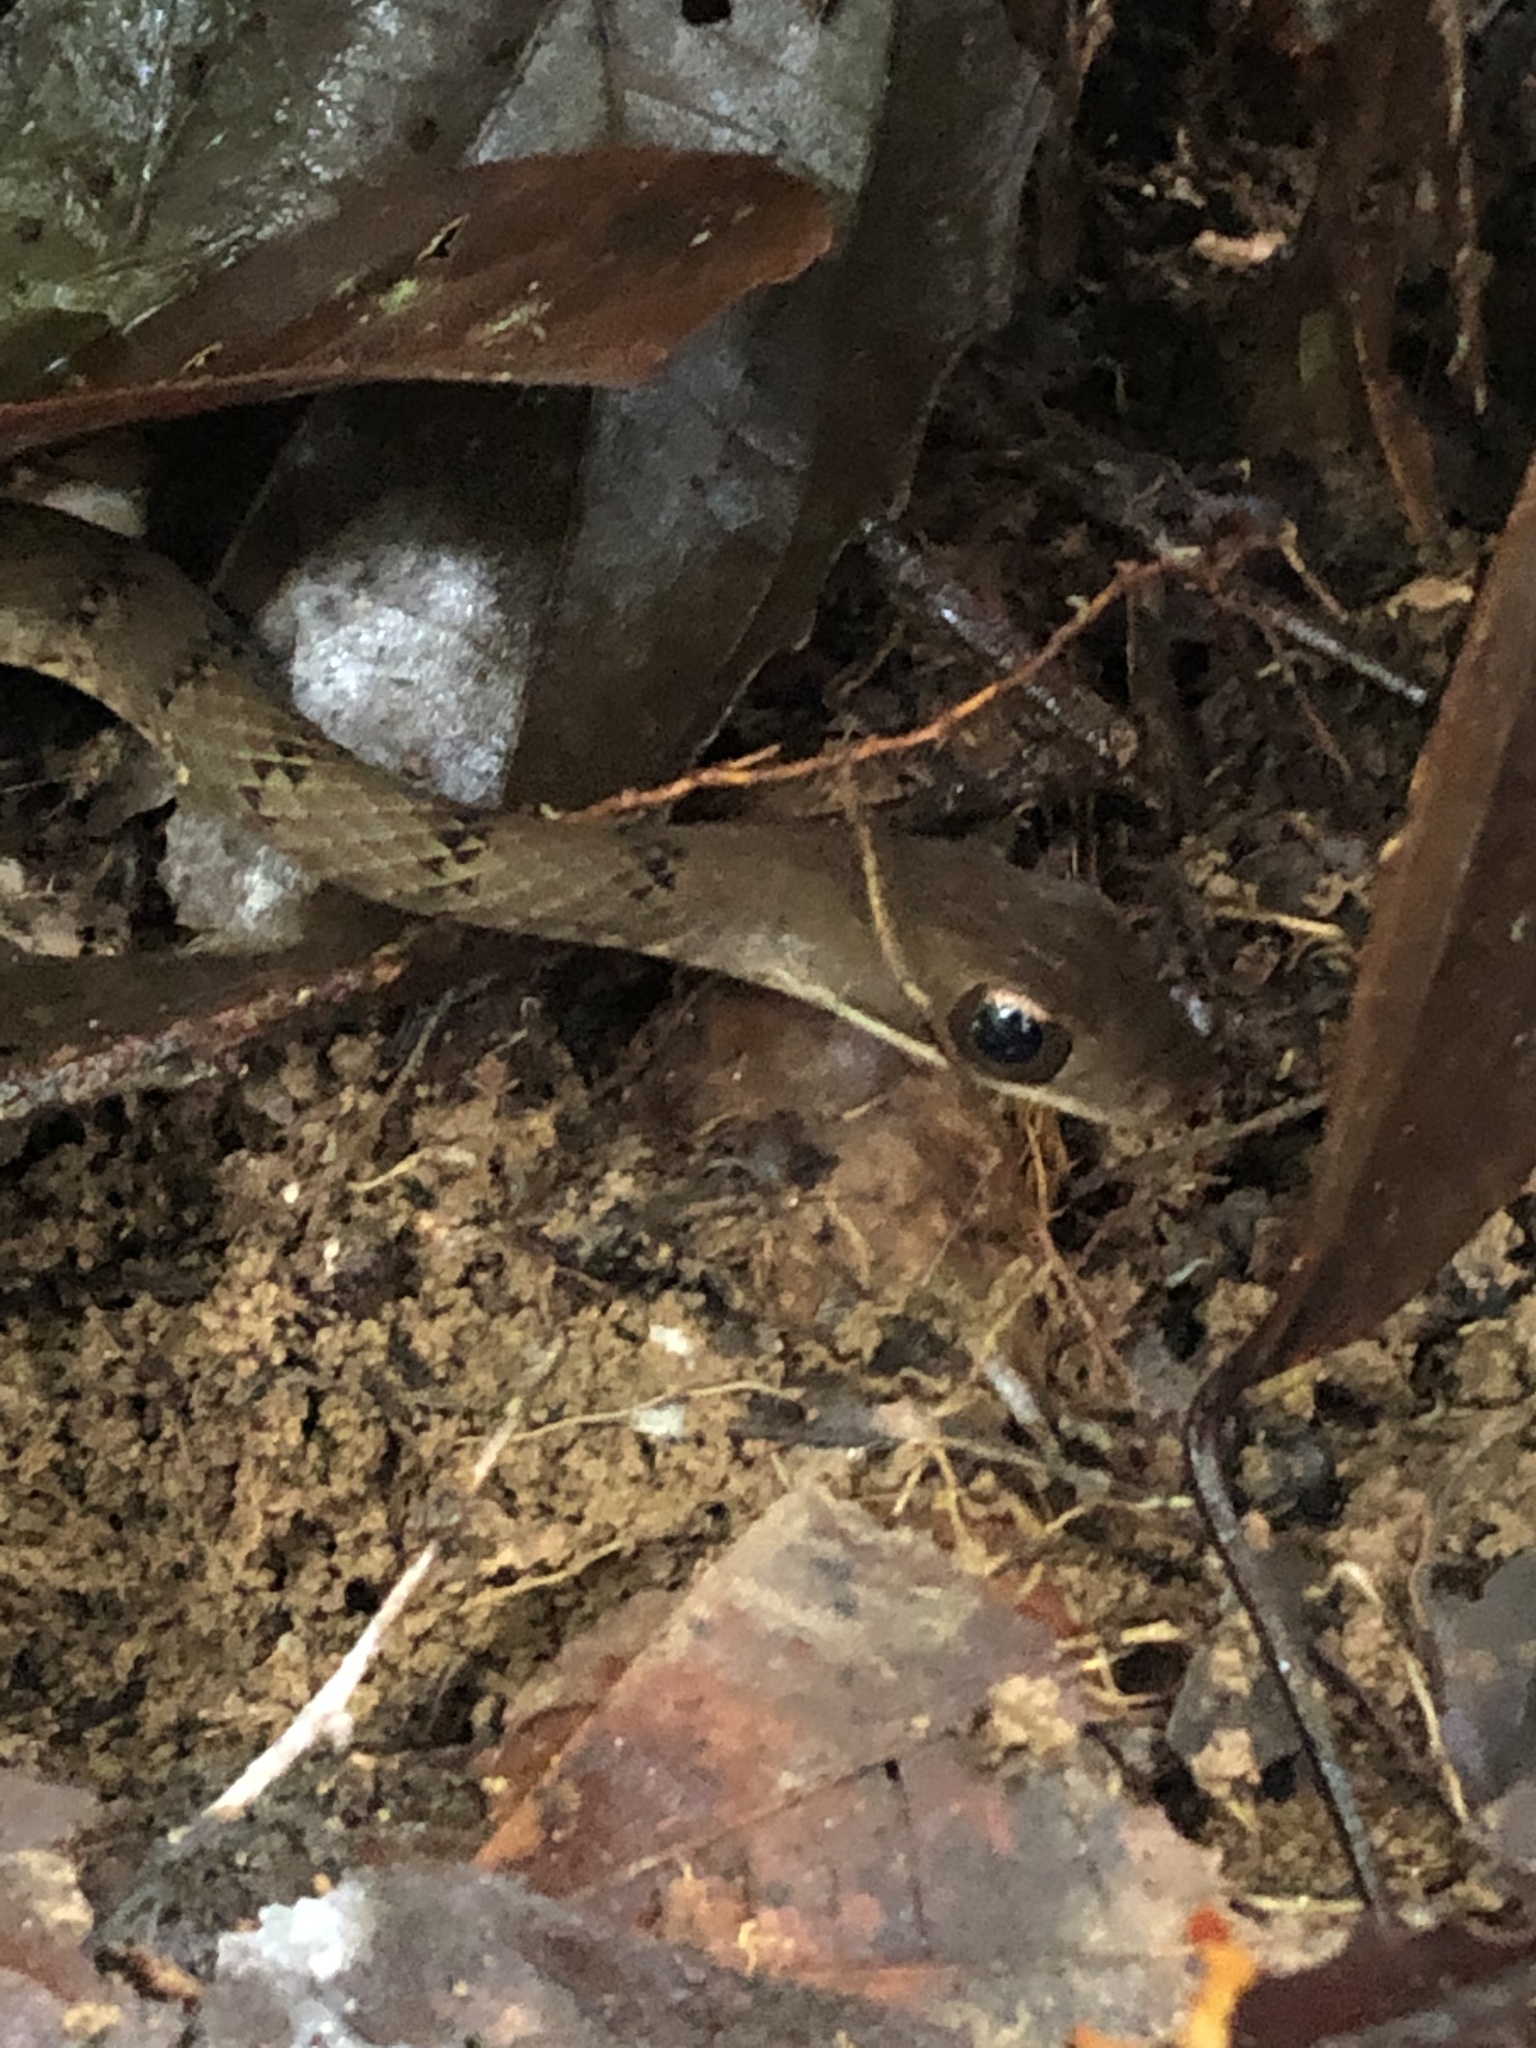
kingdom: Animalia
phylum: Chordata
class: Squamata
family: Colubridae
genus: Dendrophidion
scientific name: Dendrophidion dendrophis
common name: Olive forest racer
